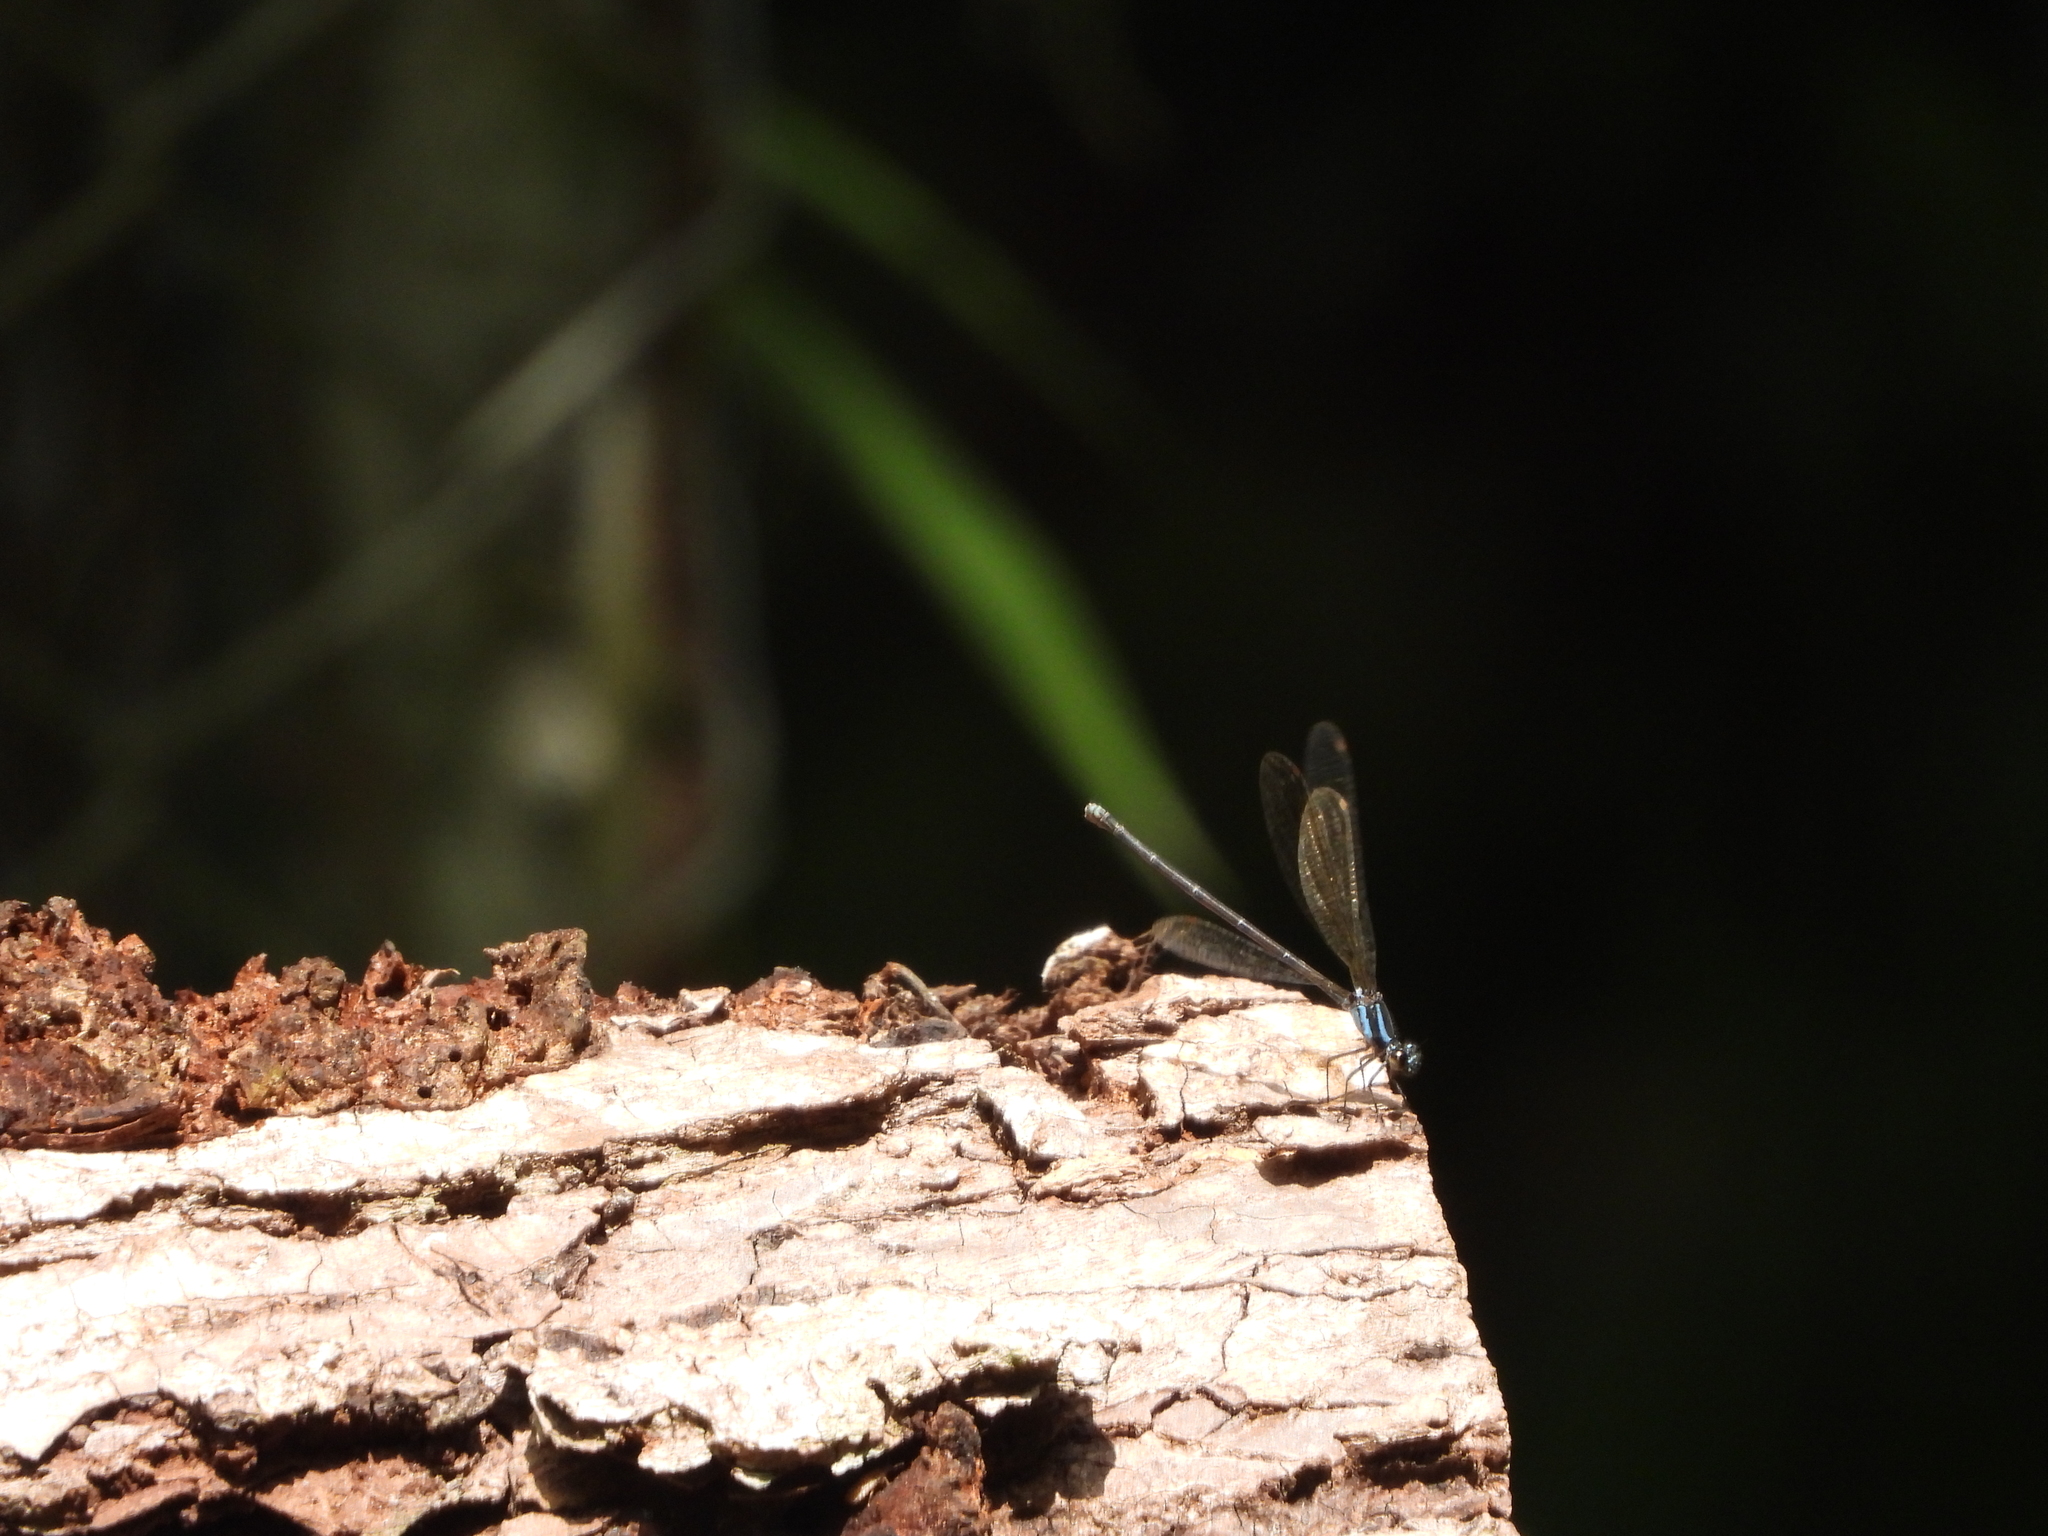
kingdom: Animalia
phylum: Arthropoda
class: Insecta
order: Odonata
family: Coenagrionidae
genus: Argia
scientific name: Argia oculata
